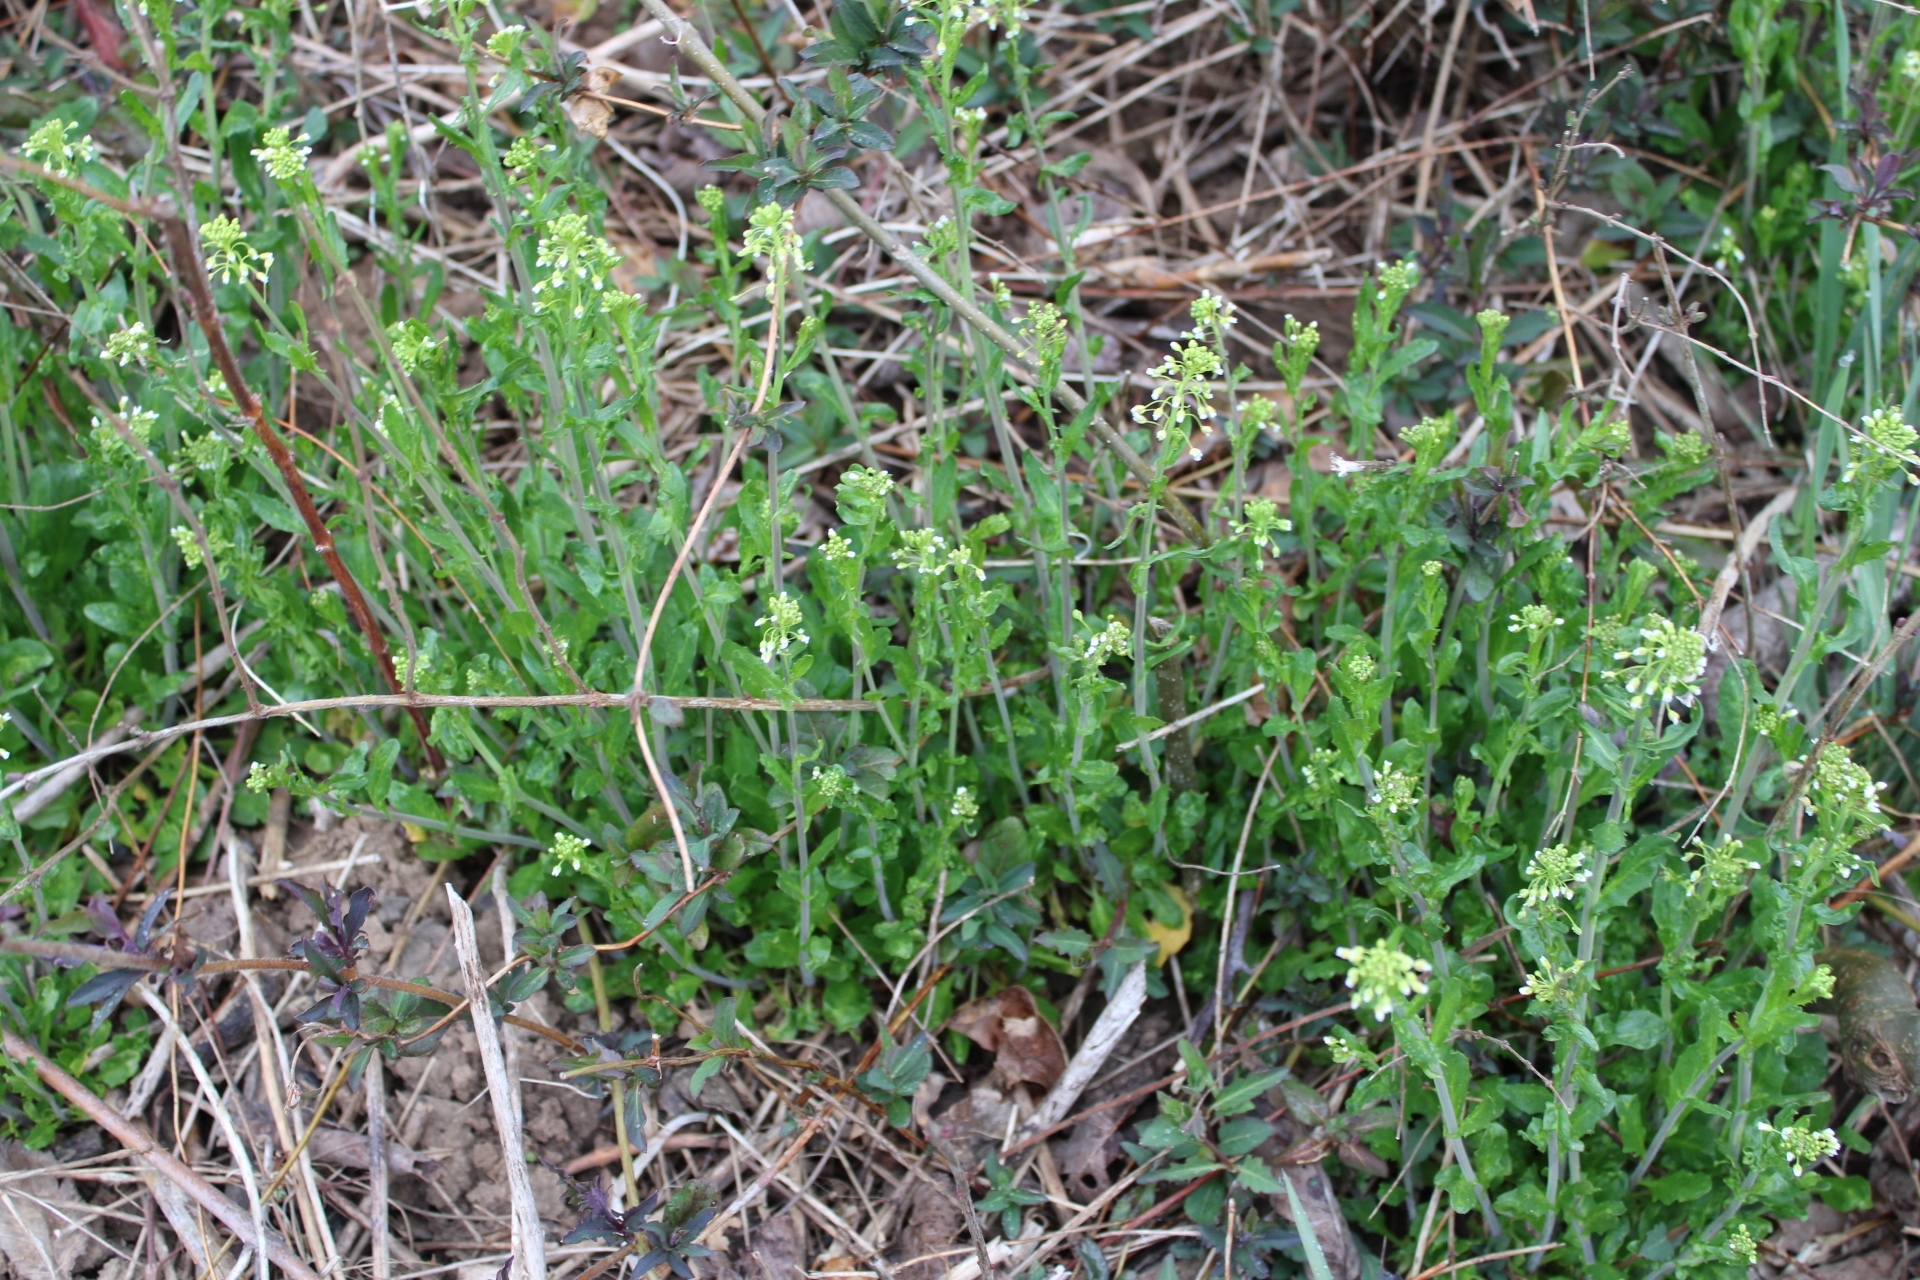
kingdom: Plantae
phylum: Tracheophyta
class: Magnoliopsida
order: Brassicales
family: Brassicaceae
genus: Mummenhoffia
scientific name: Mummenhoffia alliacea
